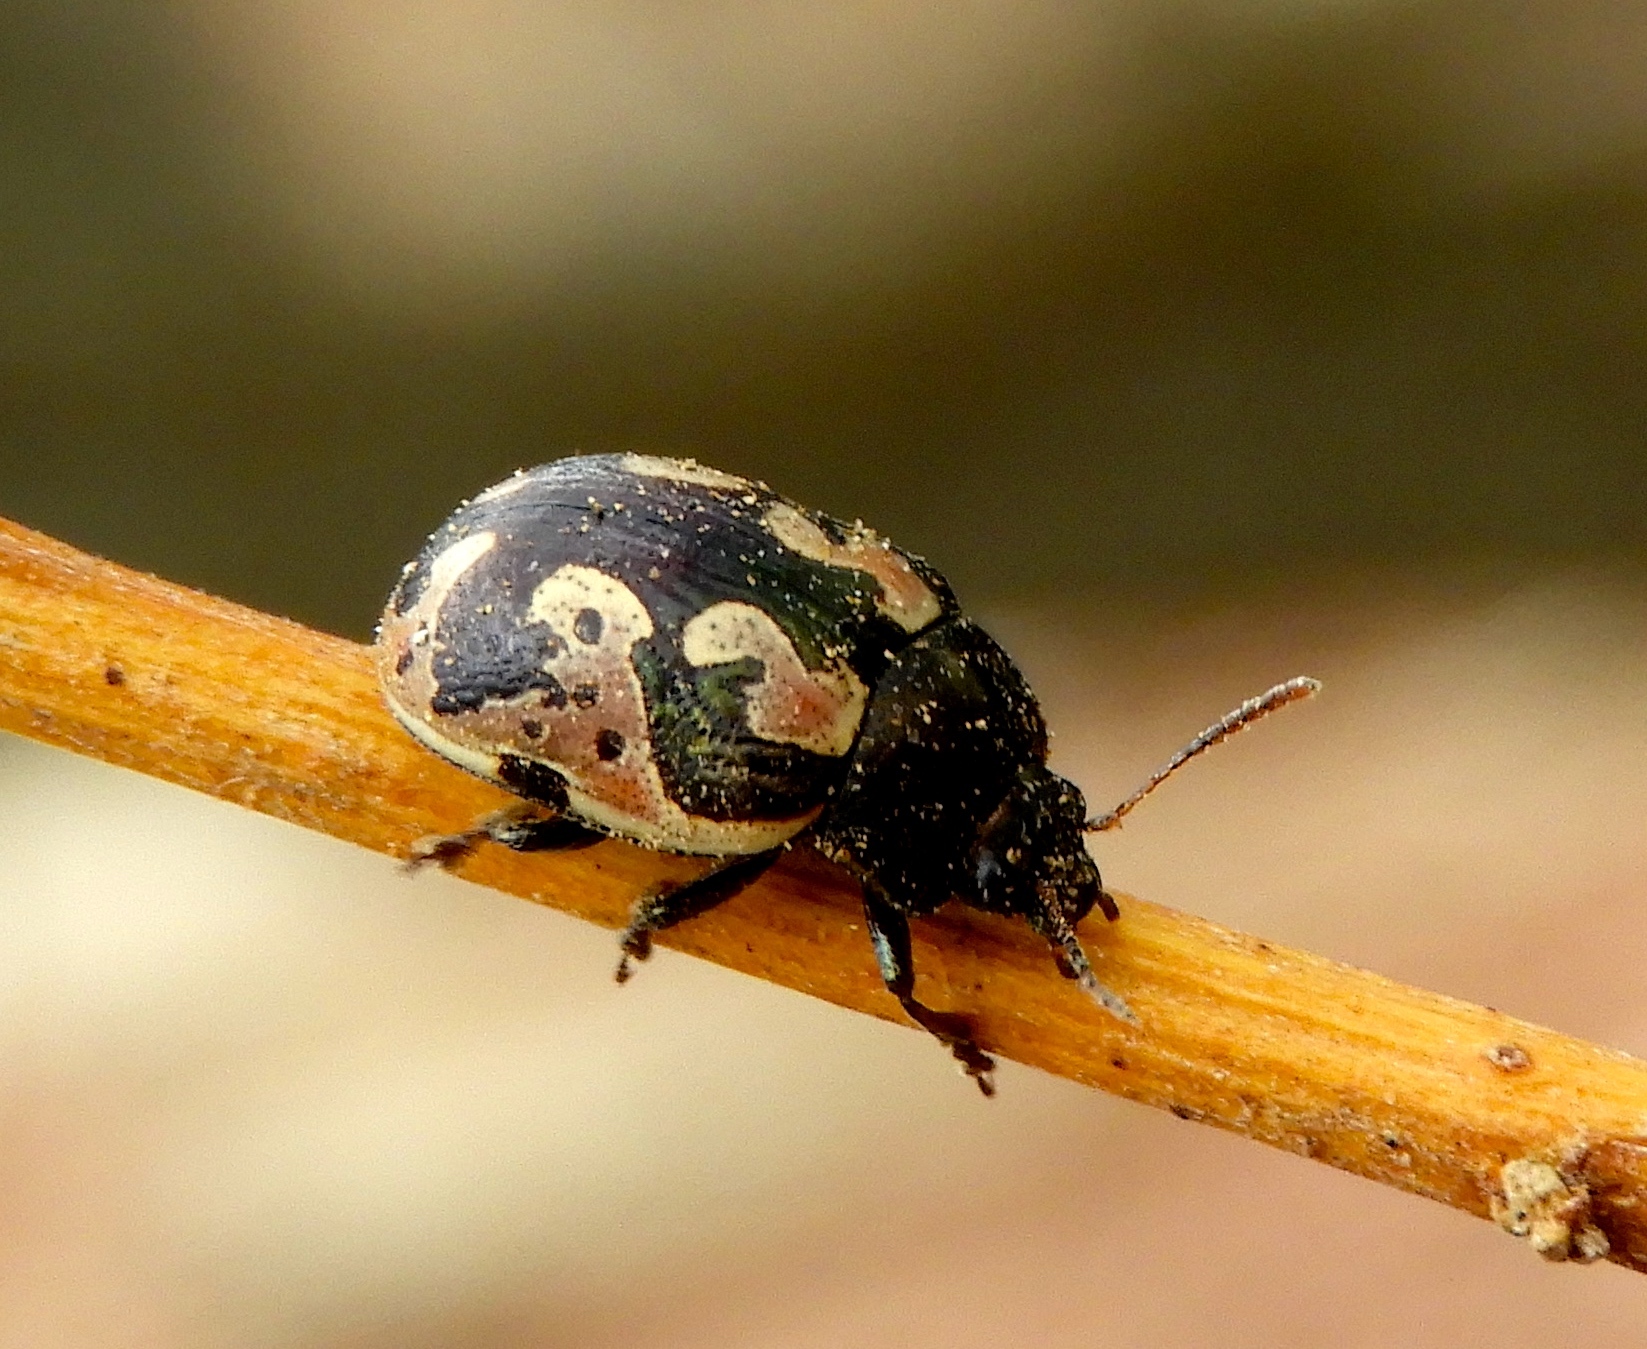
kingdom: Animalia
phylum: Arthropoda
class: Insecta
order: Coleoptera
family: Chrysomelidae
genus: Calligrapha
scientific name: Calligrapha ancoralis
